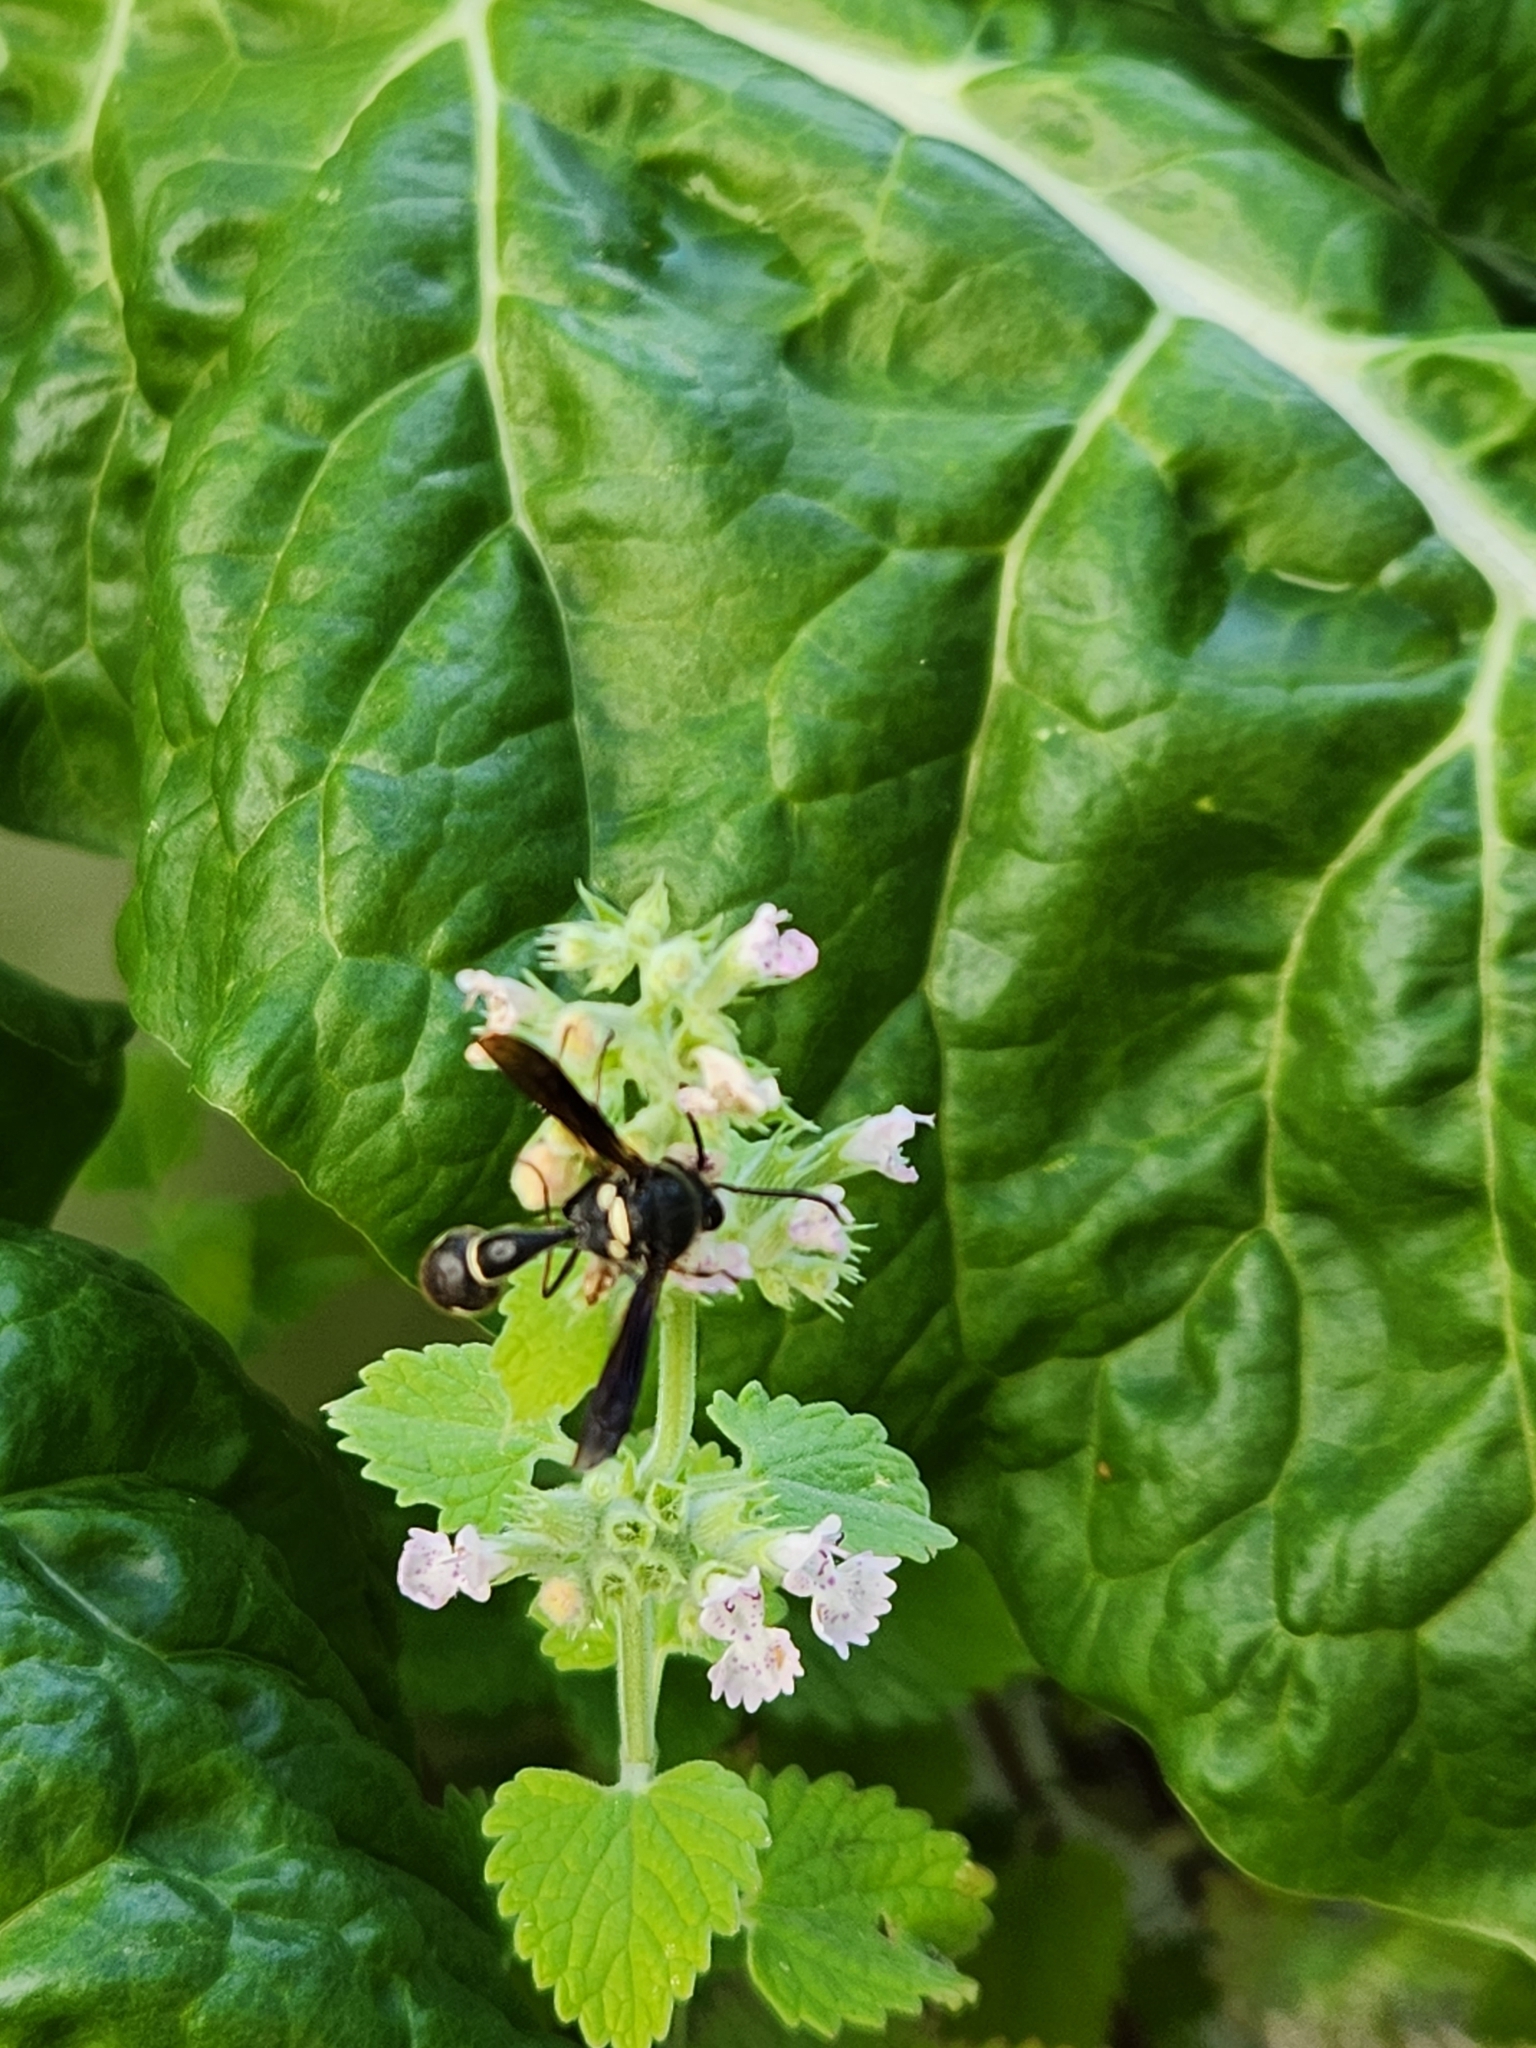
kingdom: Animalia
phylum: Arthropoda
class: Insecta
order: Hymenoptera
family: Vespidae
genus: Eumenes
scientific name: Eumenes fraternus
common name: Fraternal potter wasp
